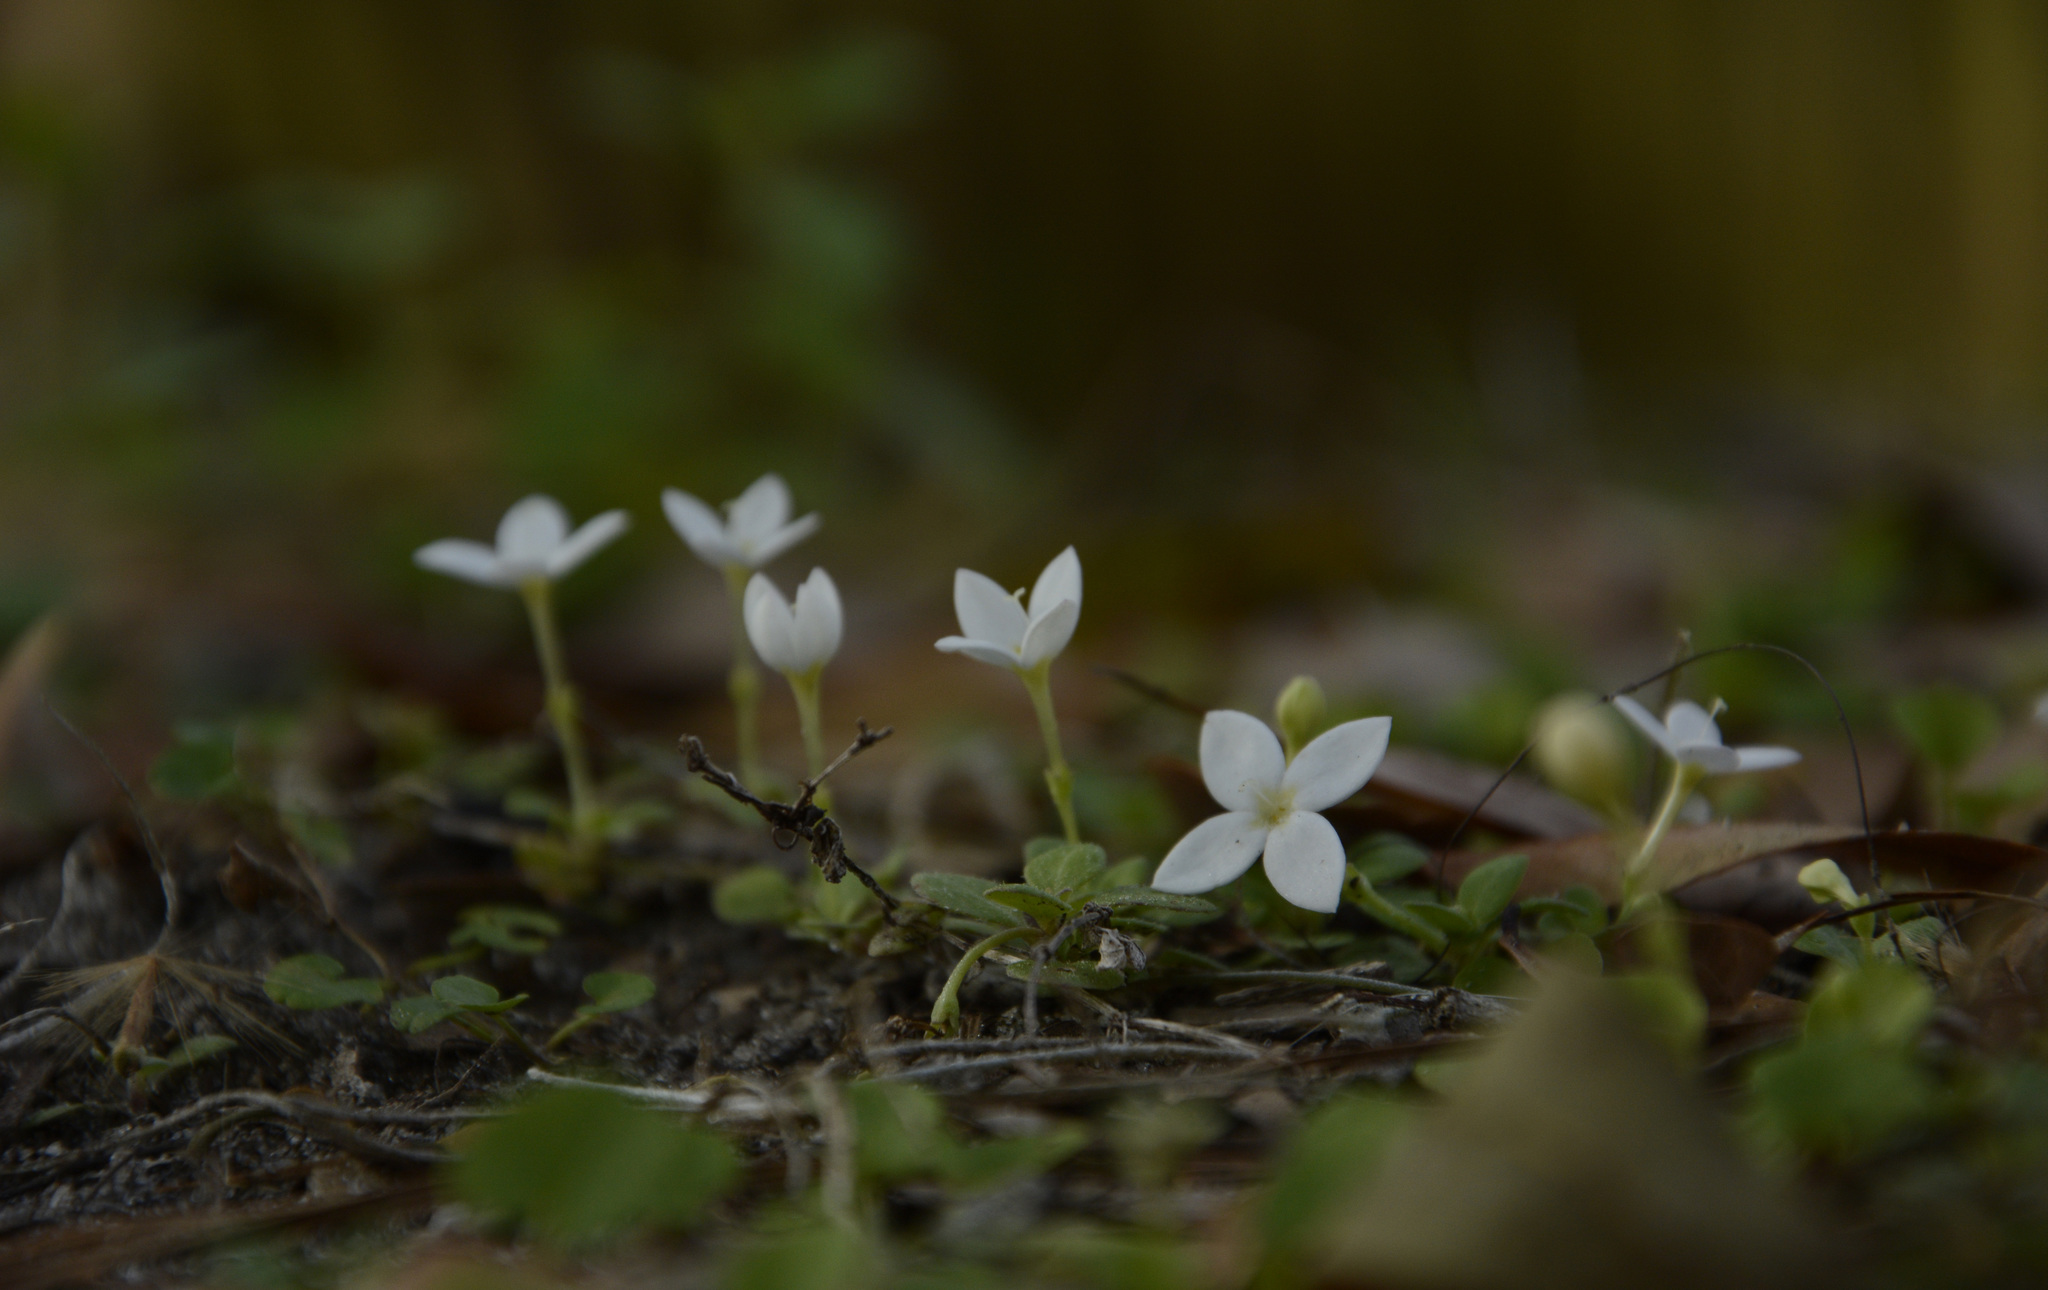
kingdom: Plantae
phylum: Tracheophyta
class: Magnoliopsida
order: Gentianales
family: Rubiaceae
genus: Houstonia
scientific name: Houstonia procumbens
